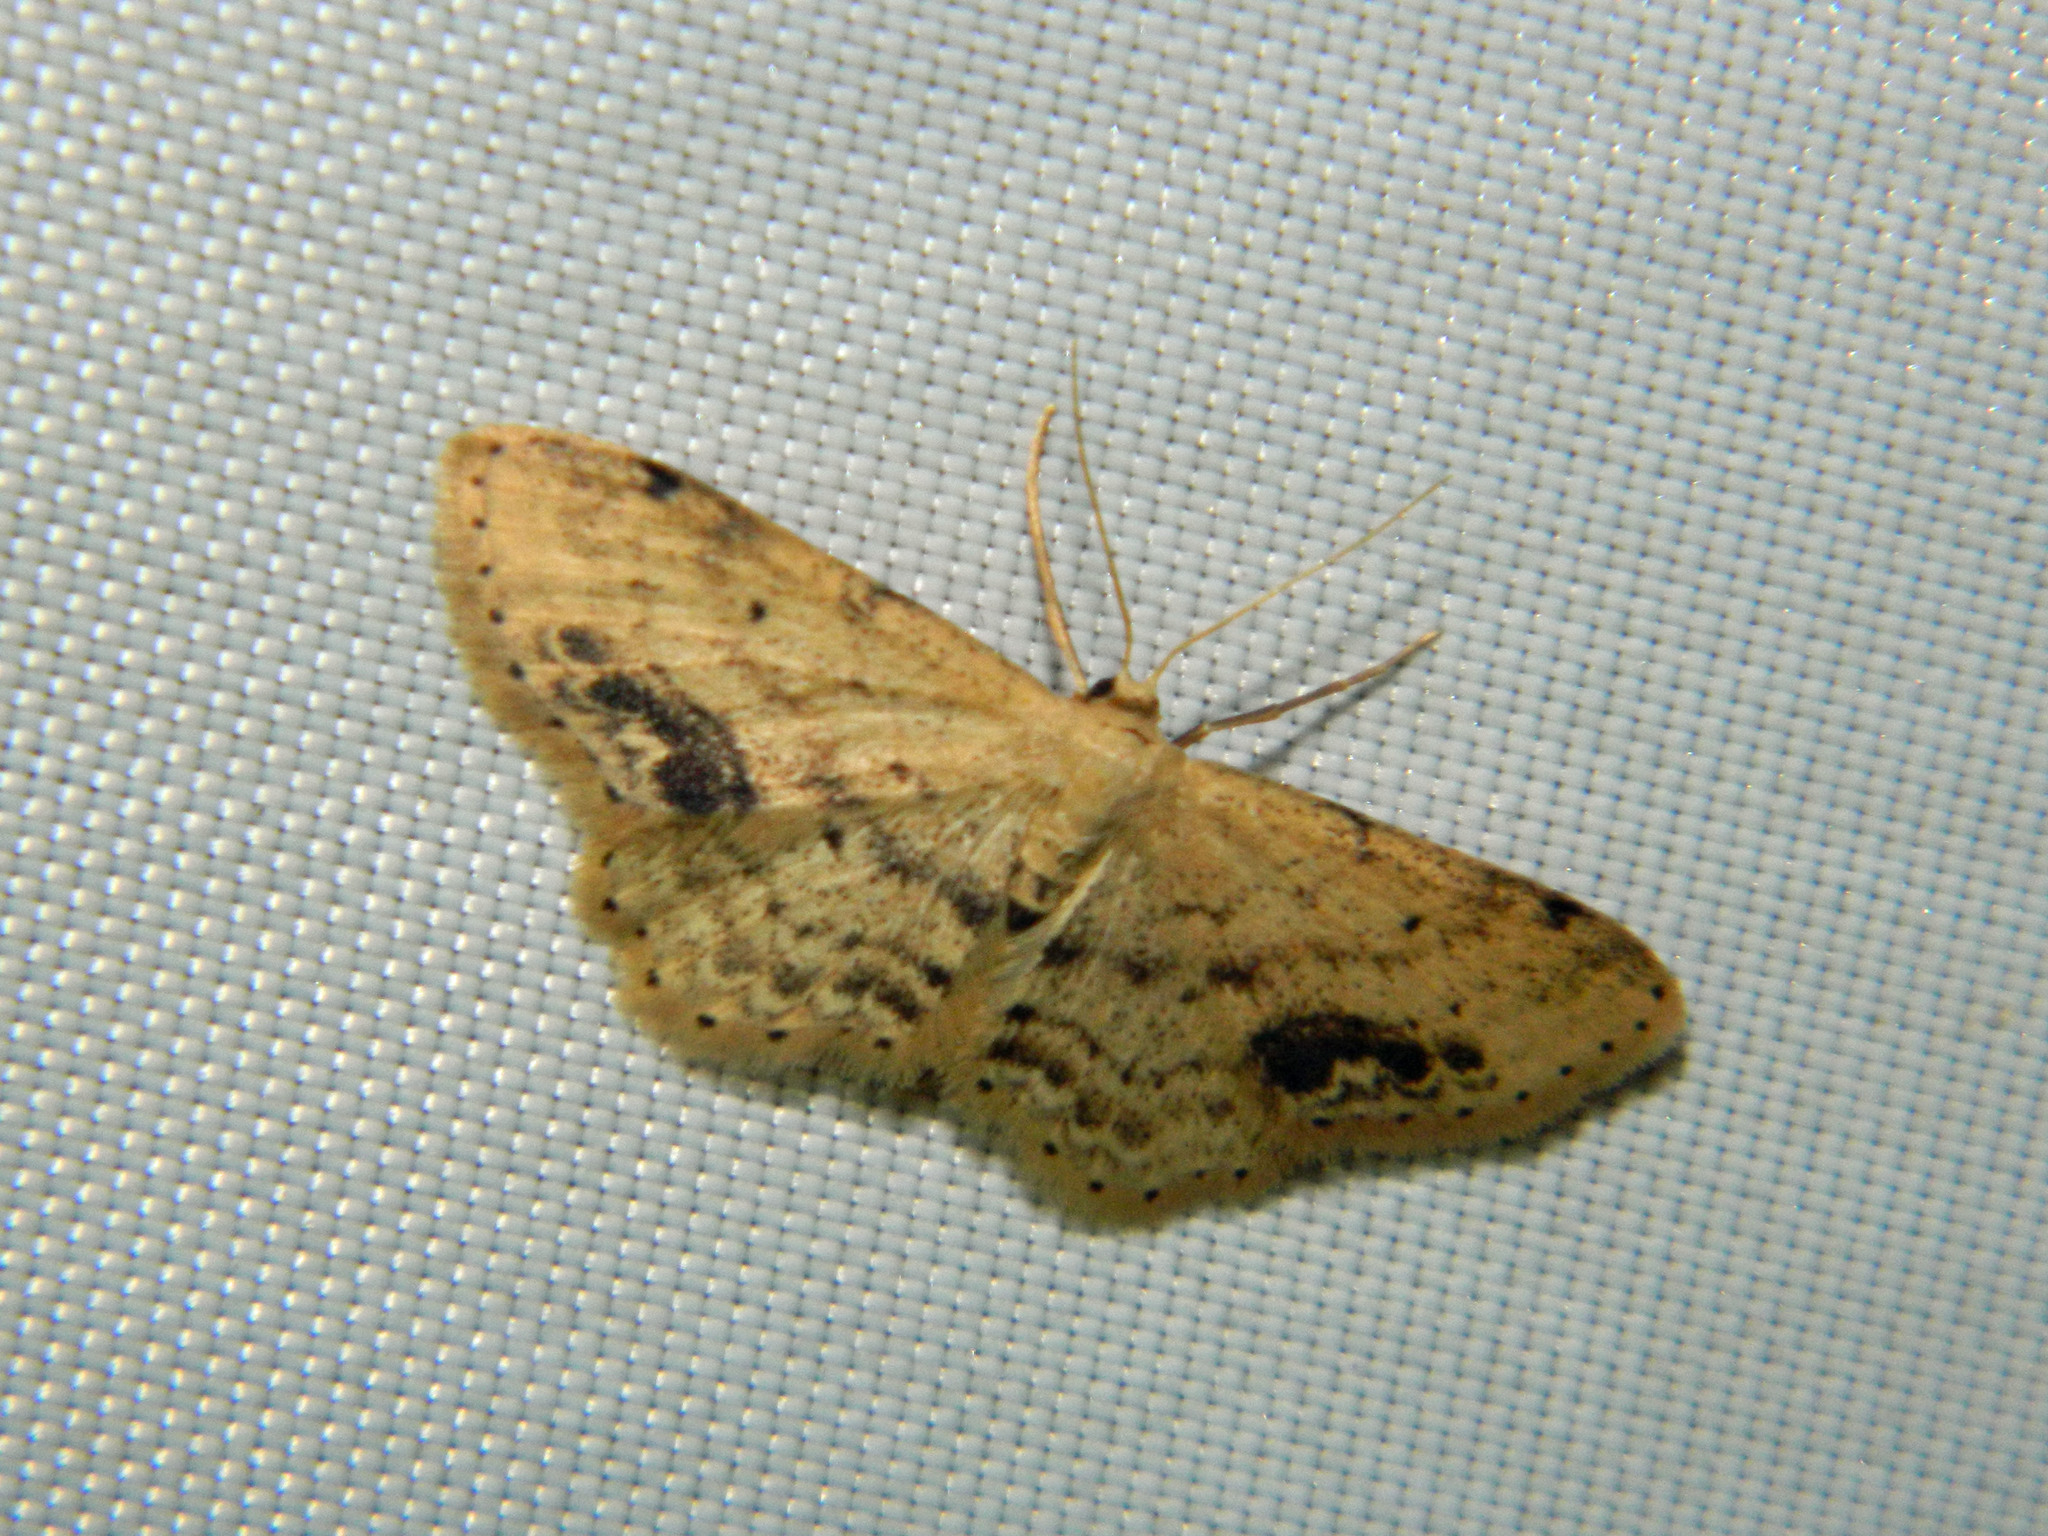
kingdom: Animalia
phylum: Arthropoda
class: Insecta
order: Lepidoptera
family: Geometridae
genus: Idaea
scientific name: Idaea dimidiata
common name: Single-dotted wave
